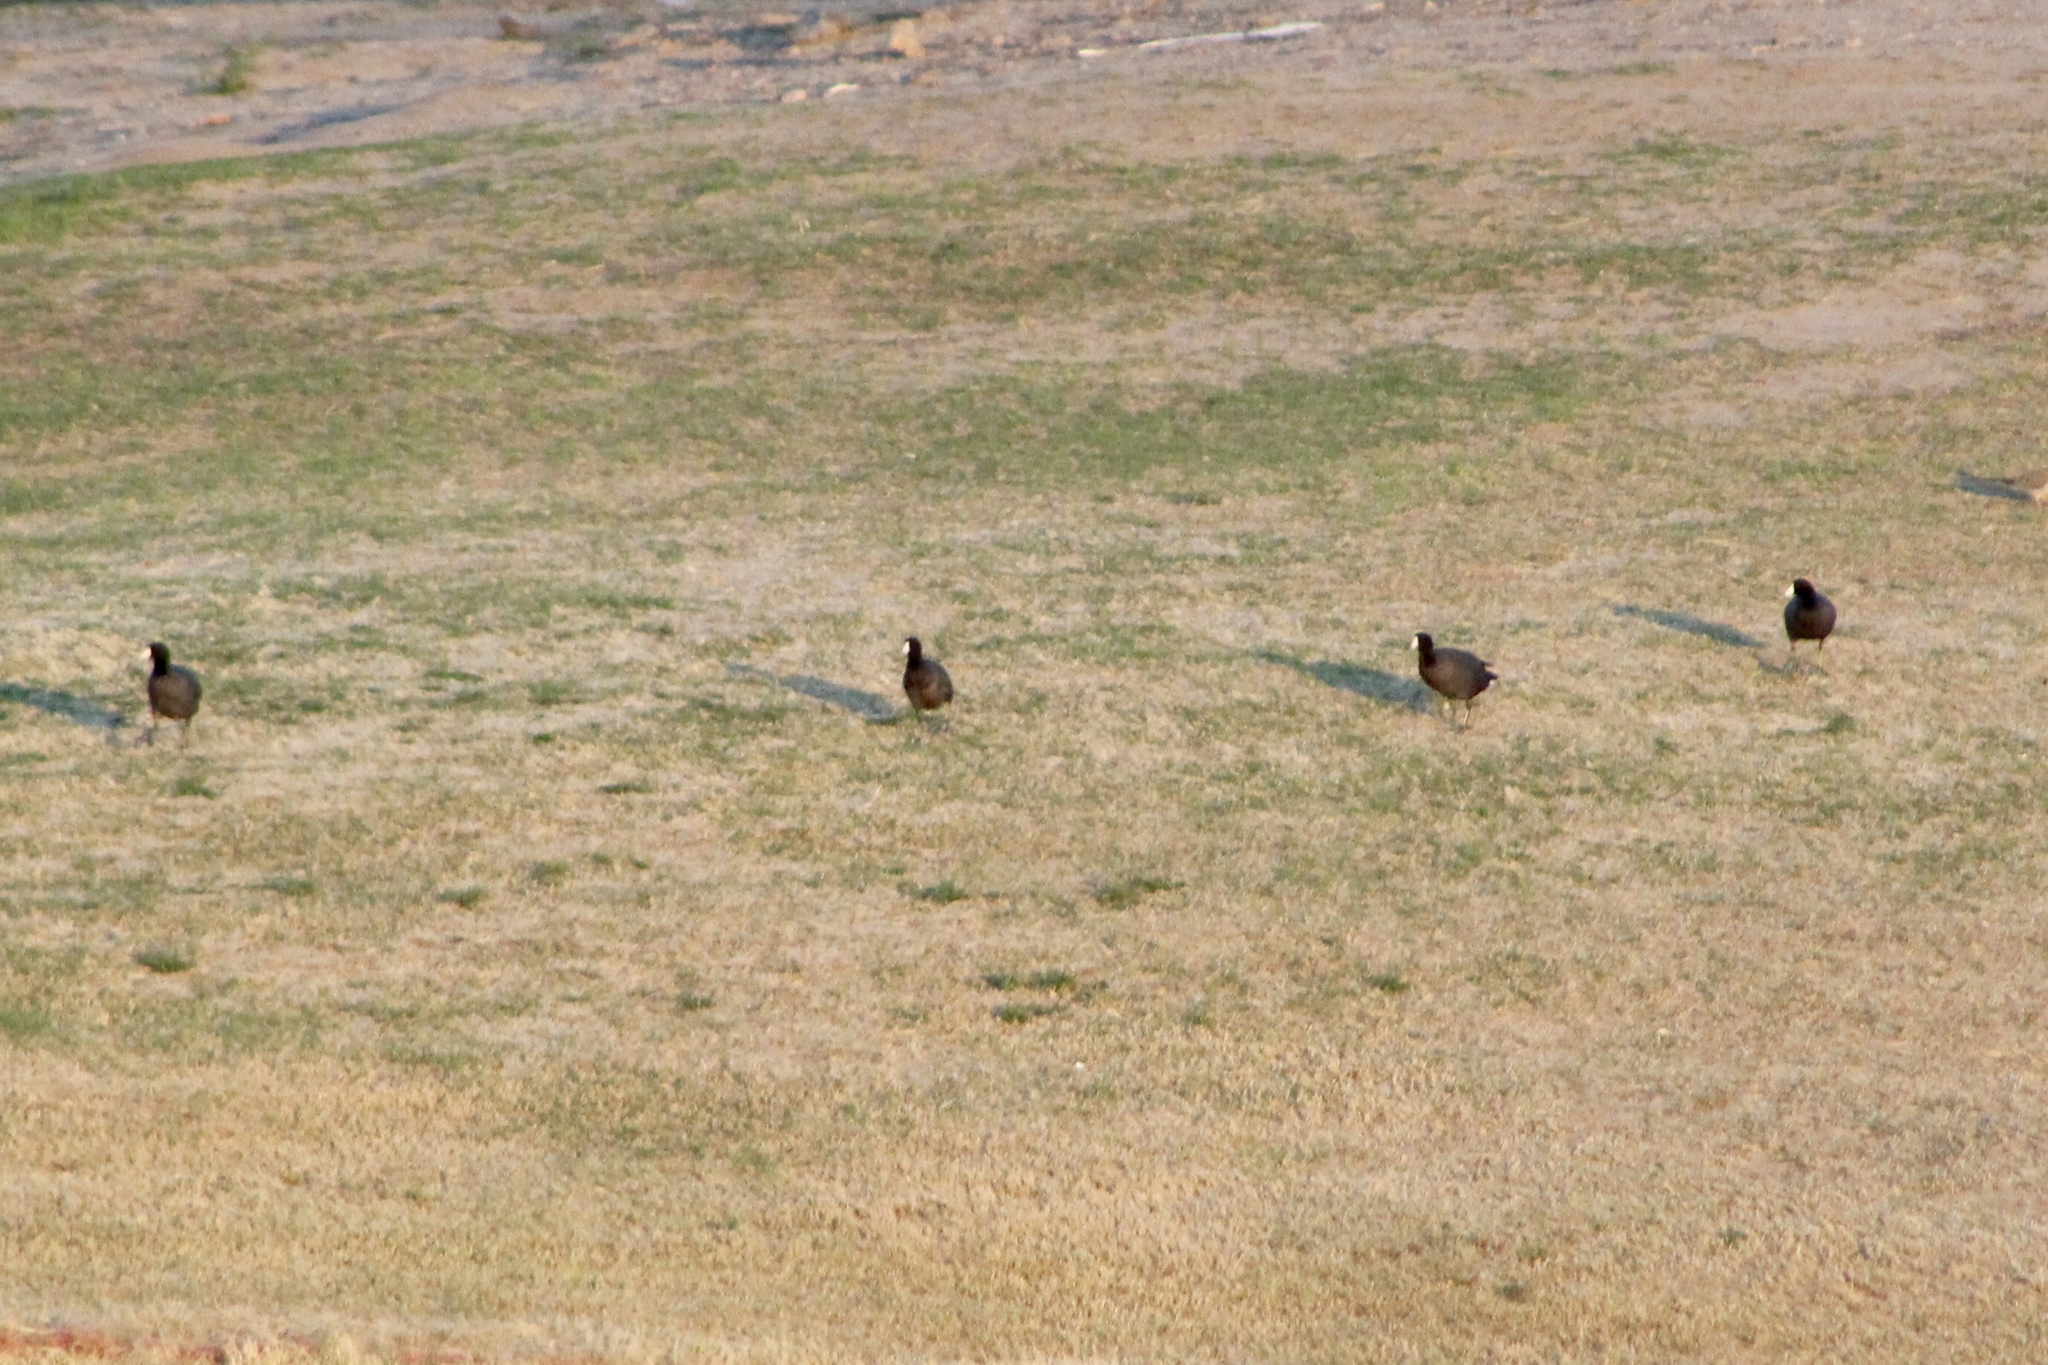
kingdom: Animalia
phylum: Chordata
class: Aves
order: Gruiformes
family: Rallidae
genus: Fulica
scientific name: Fulica americana
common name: American coot
